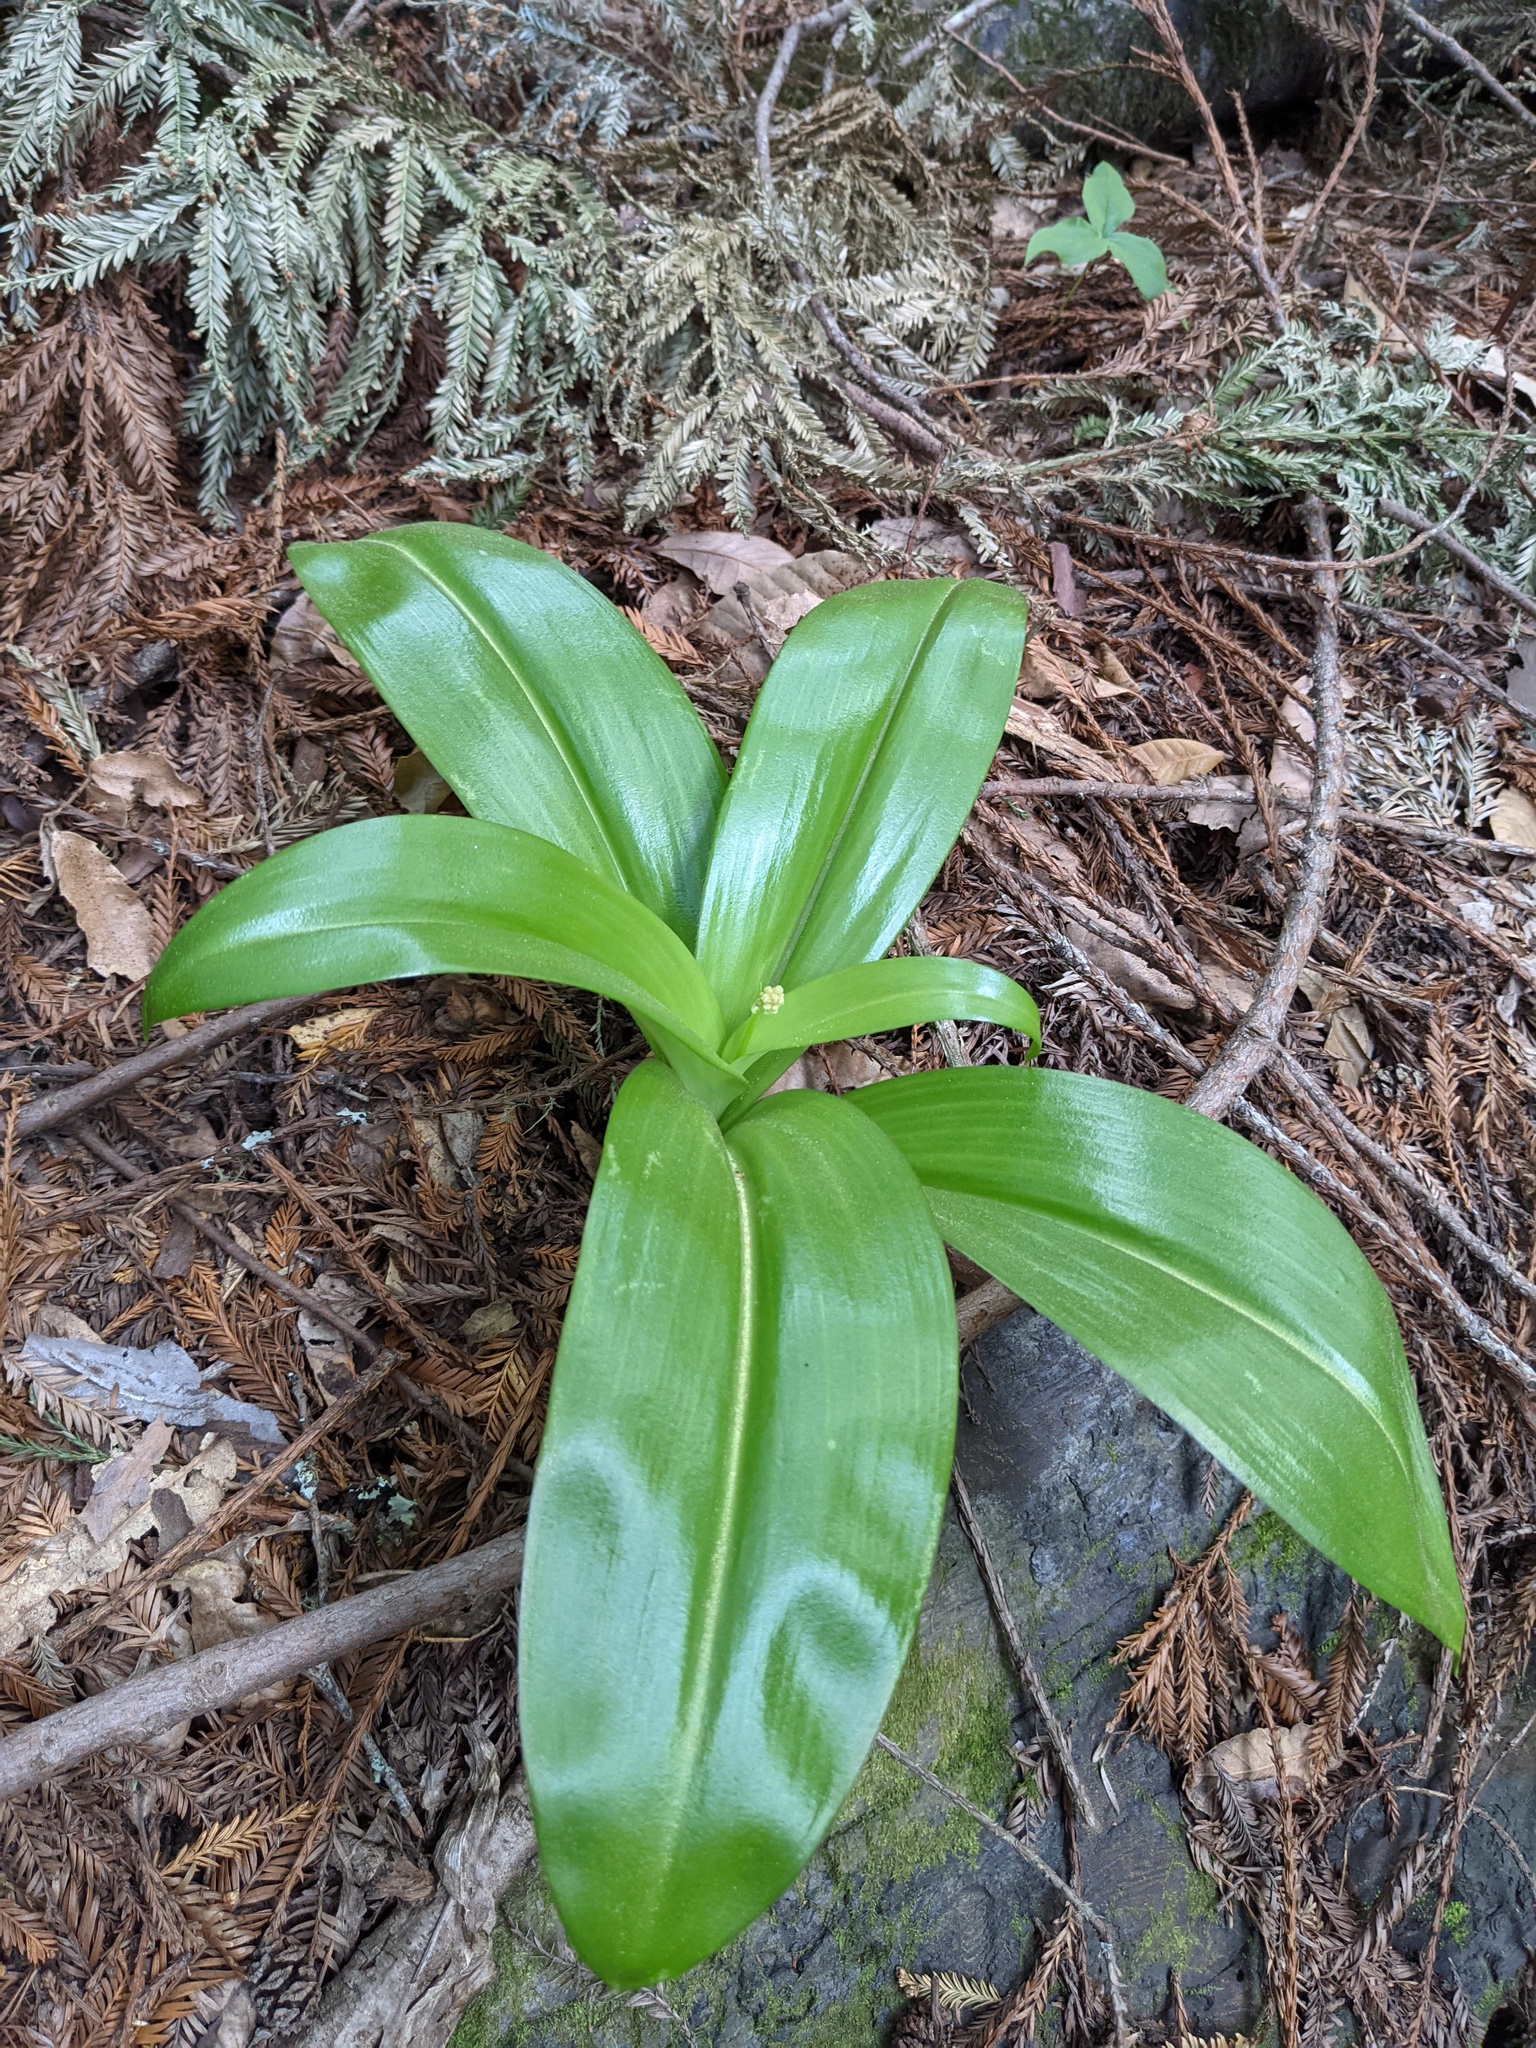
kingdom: Plantae
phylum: Tracheophyta
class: Liliopsida
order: Liliales
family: Liliaceae
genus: Clintonia
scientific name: Clintonia andrewsiana
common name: Red clintonia
